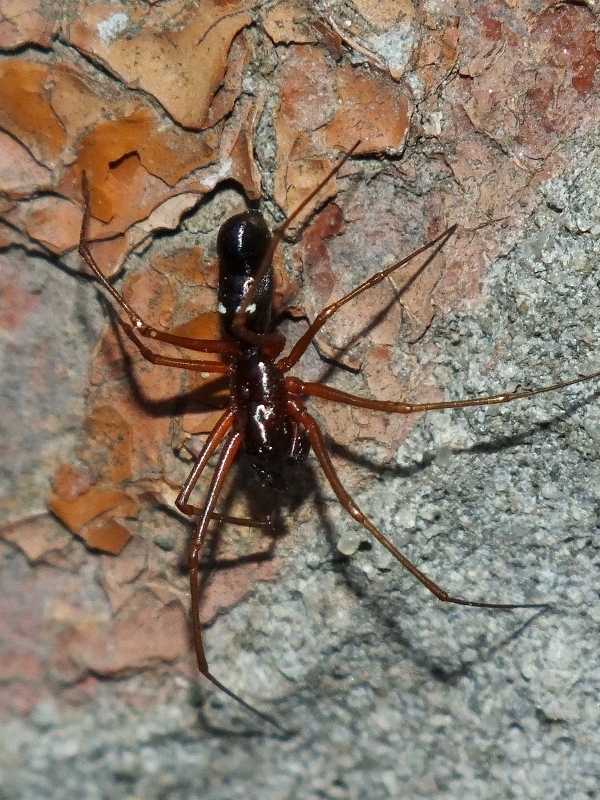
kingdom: Animalia
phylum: Arthropoda
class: Arachnida
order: Araneae
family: Linyphiidae
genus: Microlinyphia
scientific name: Microlinyphia pusilla
